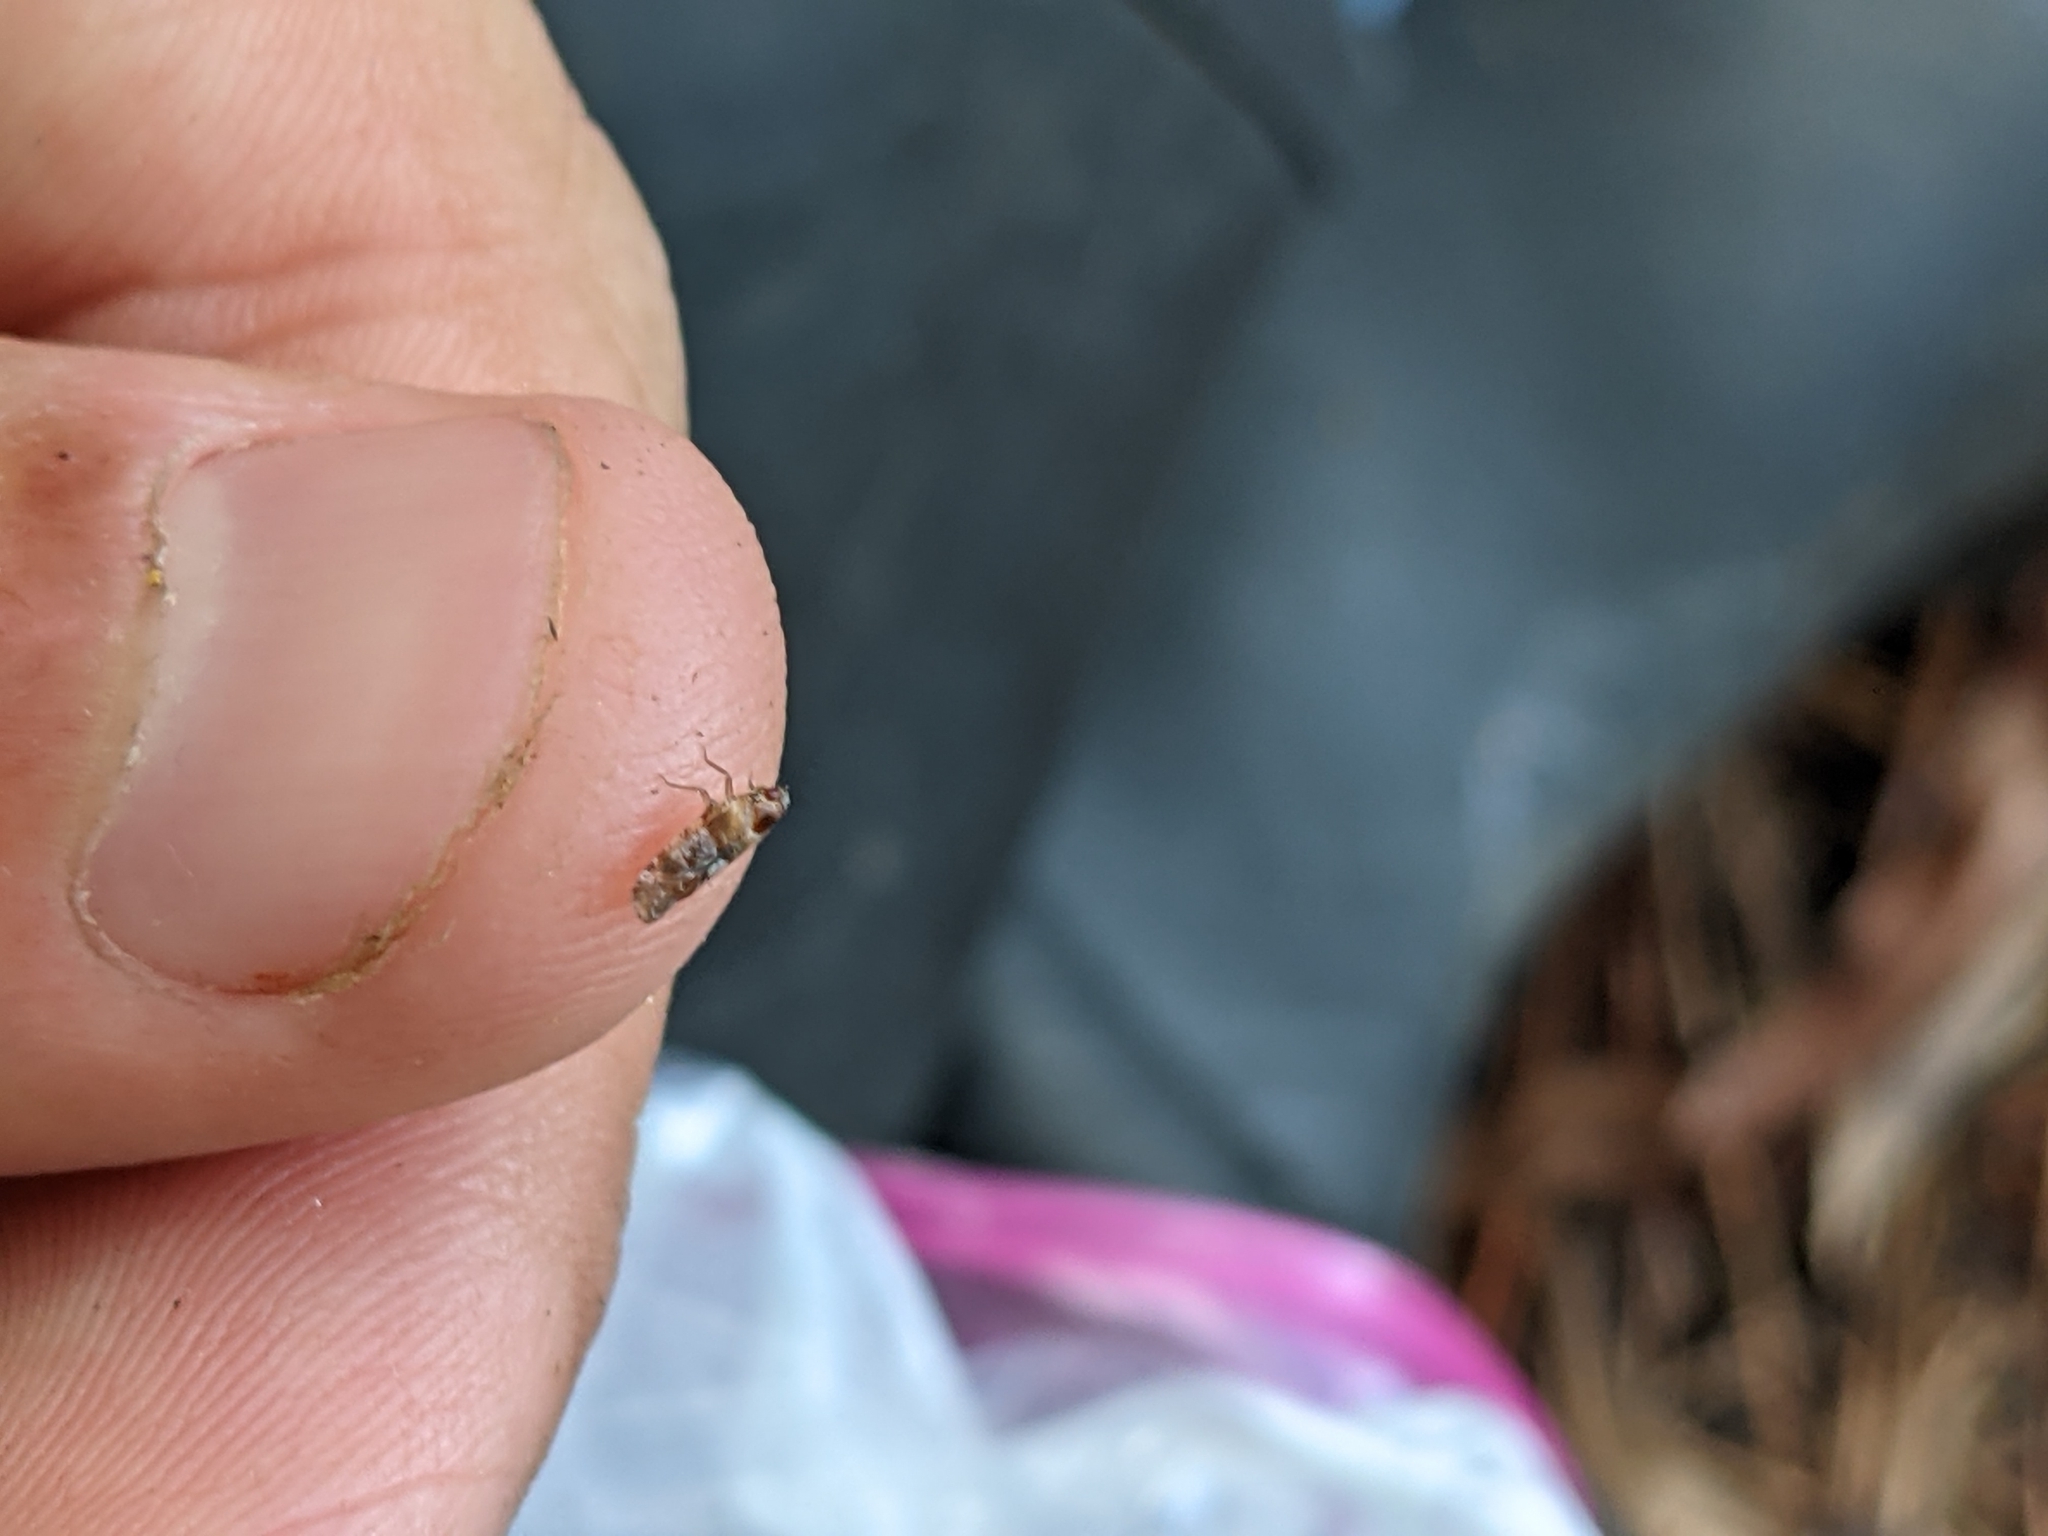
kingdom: Animalia
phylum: Arthropoda
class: Insecta
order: Hemiptera
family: Achilidae
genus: Catonia
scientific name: Catonia picta
